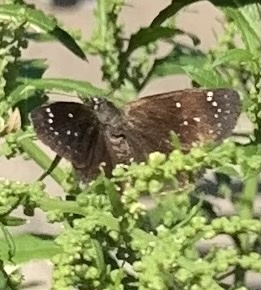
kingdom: Animalia
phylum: Arthropoda
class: Insecta
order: Lepidoptera
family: Hesperiidae
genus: Pholisora
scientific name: Pholisora catullus
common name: Common sootywing
